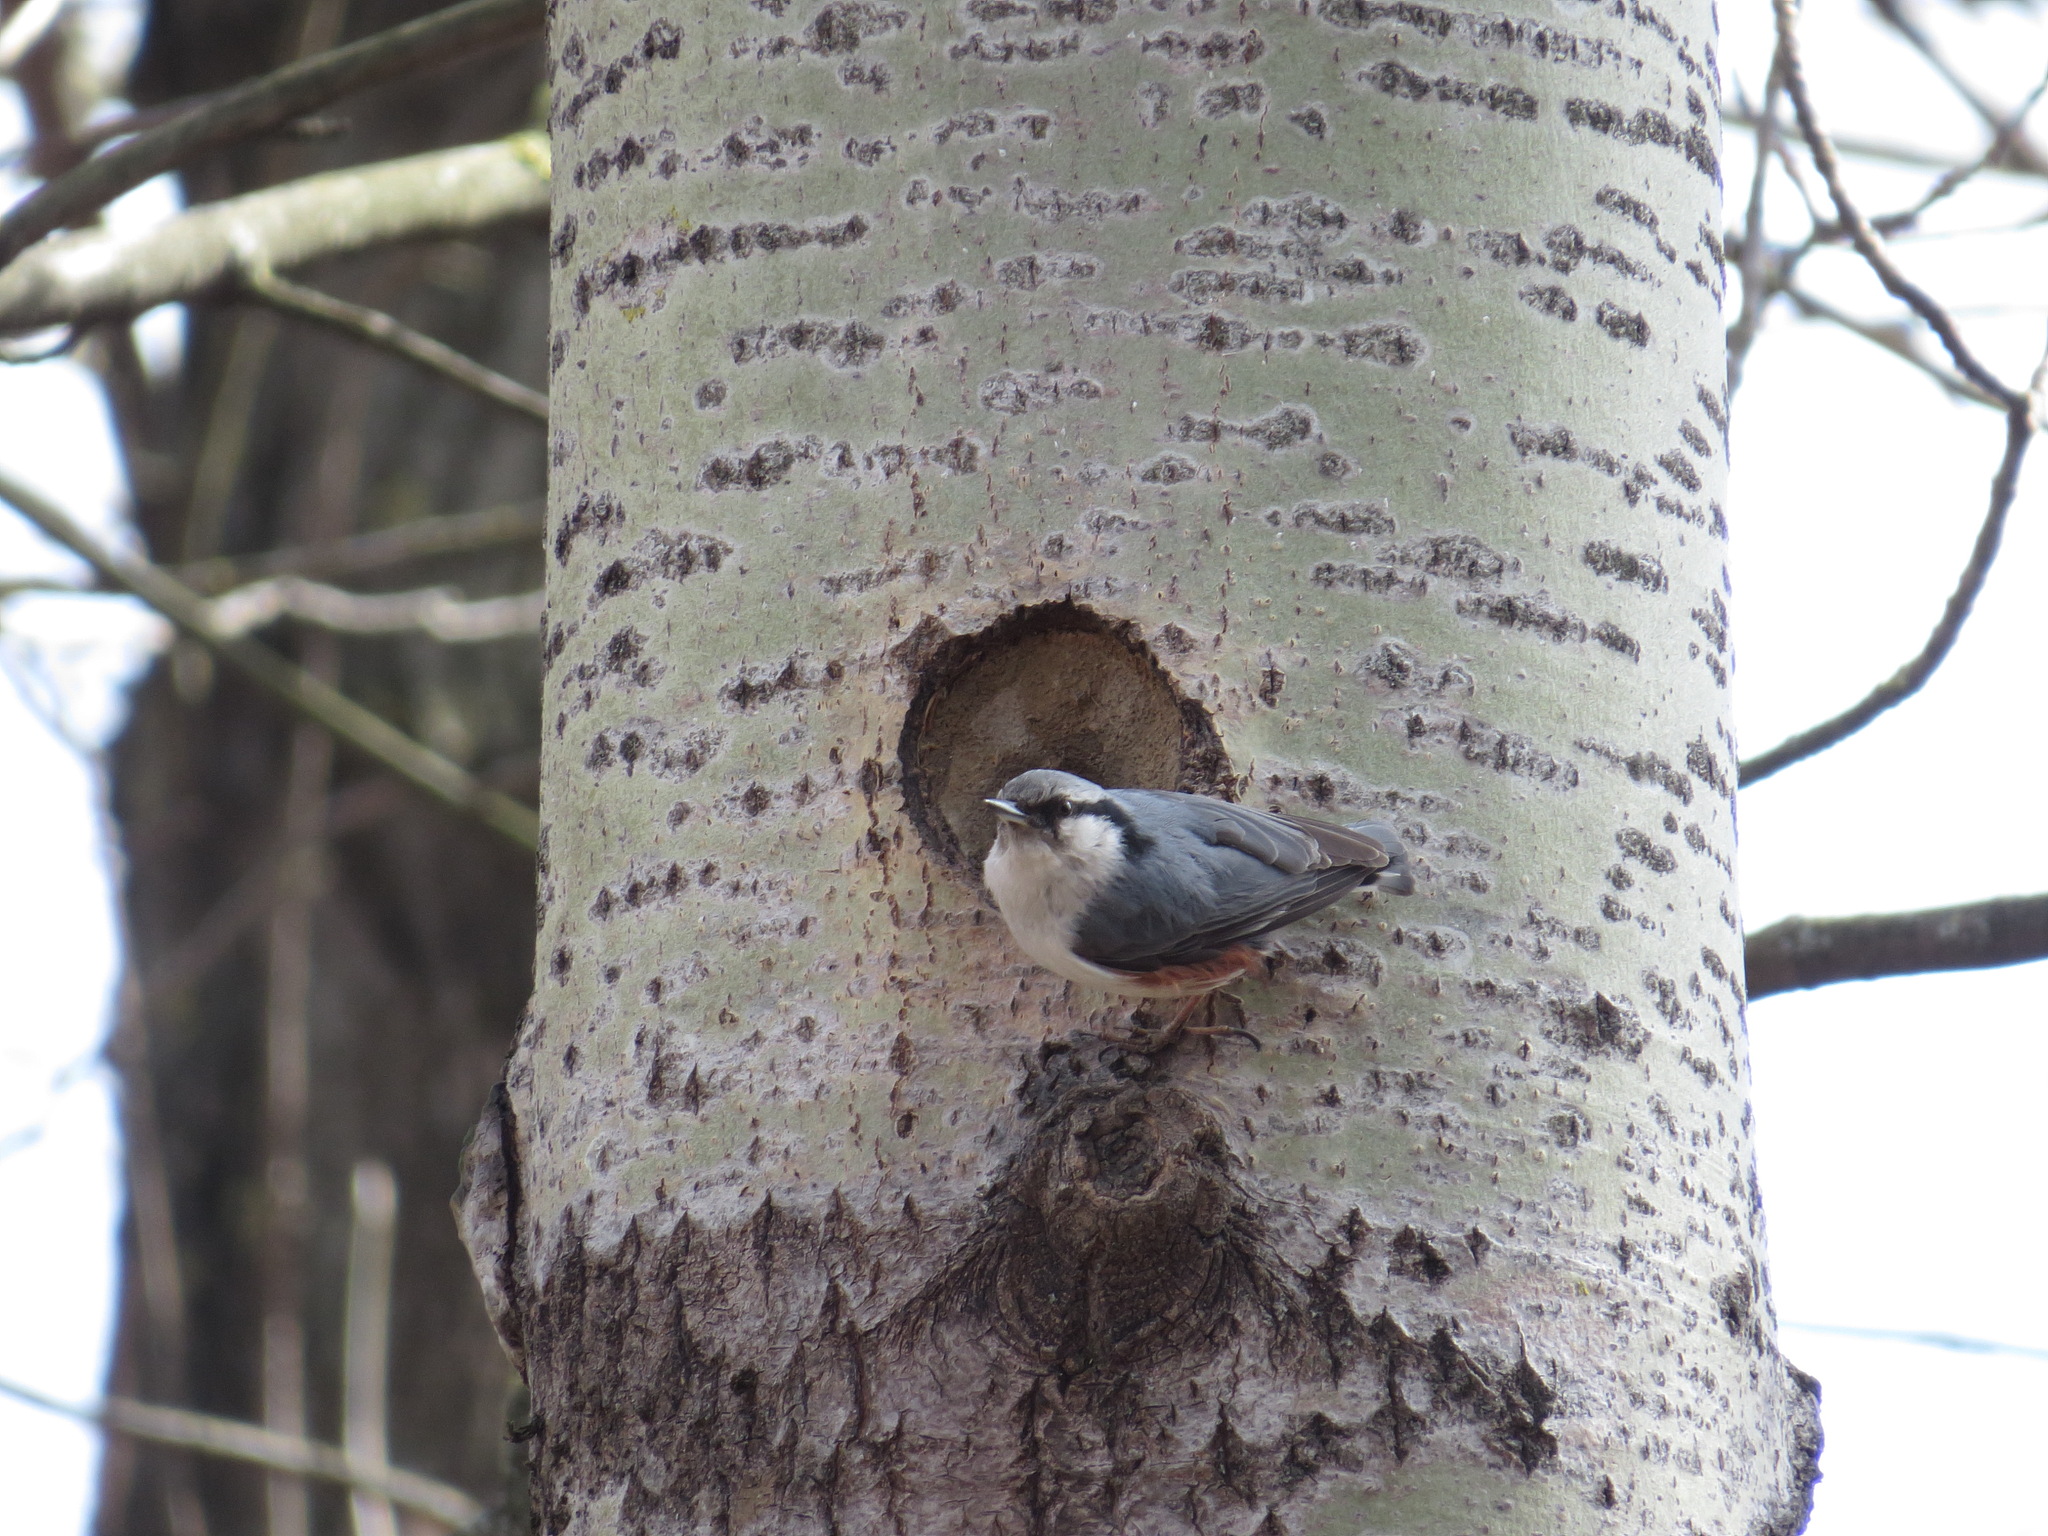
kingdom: Animalia
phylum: Chordata
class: Aves
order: Passeriformes
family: Sittidae
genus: Sitta
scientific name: Sitta europaea
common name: Eurasian nuthatch
